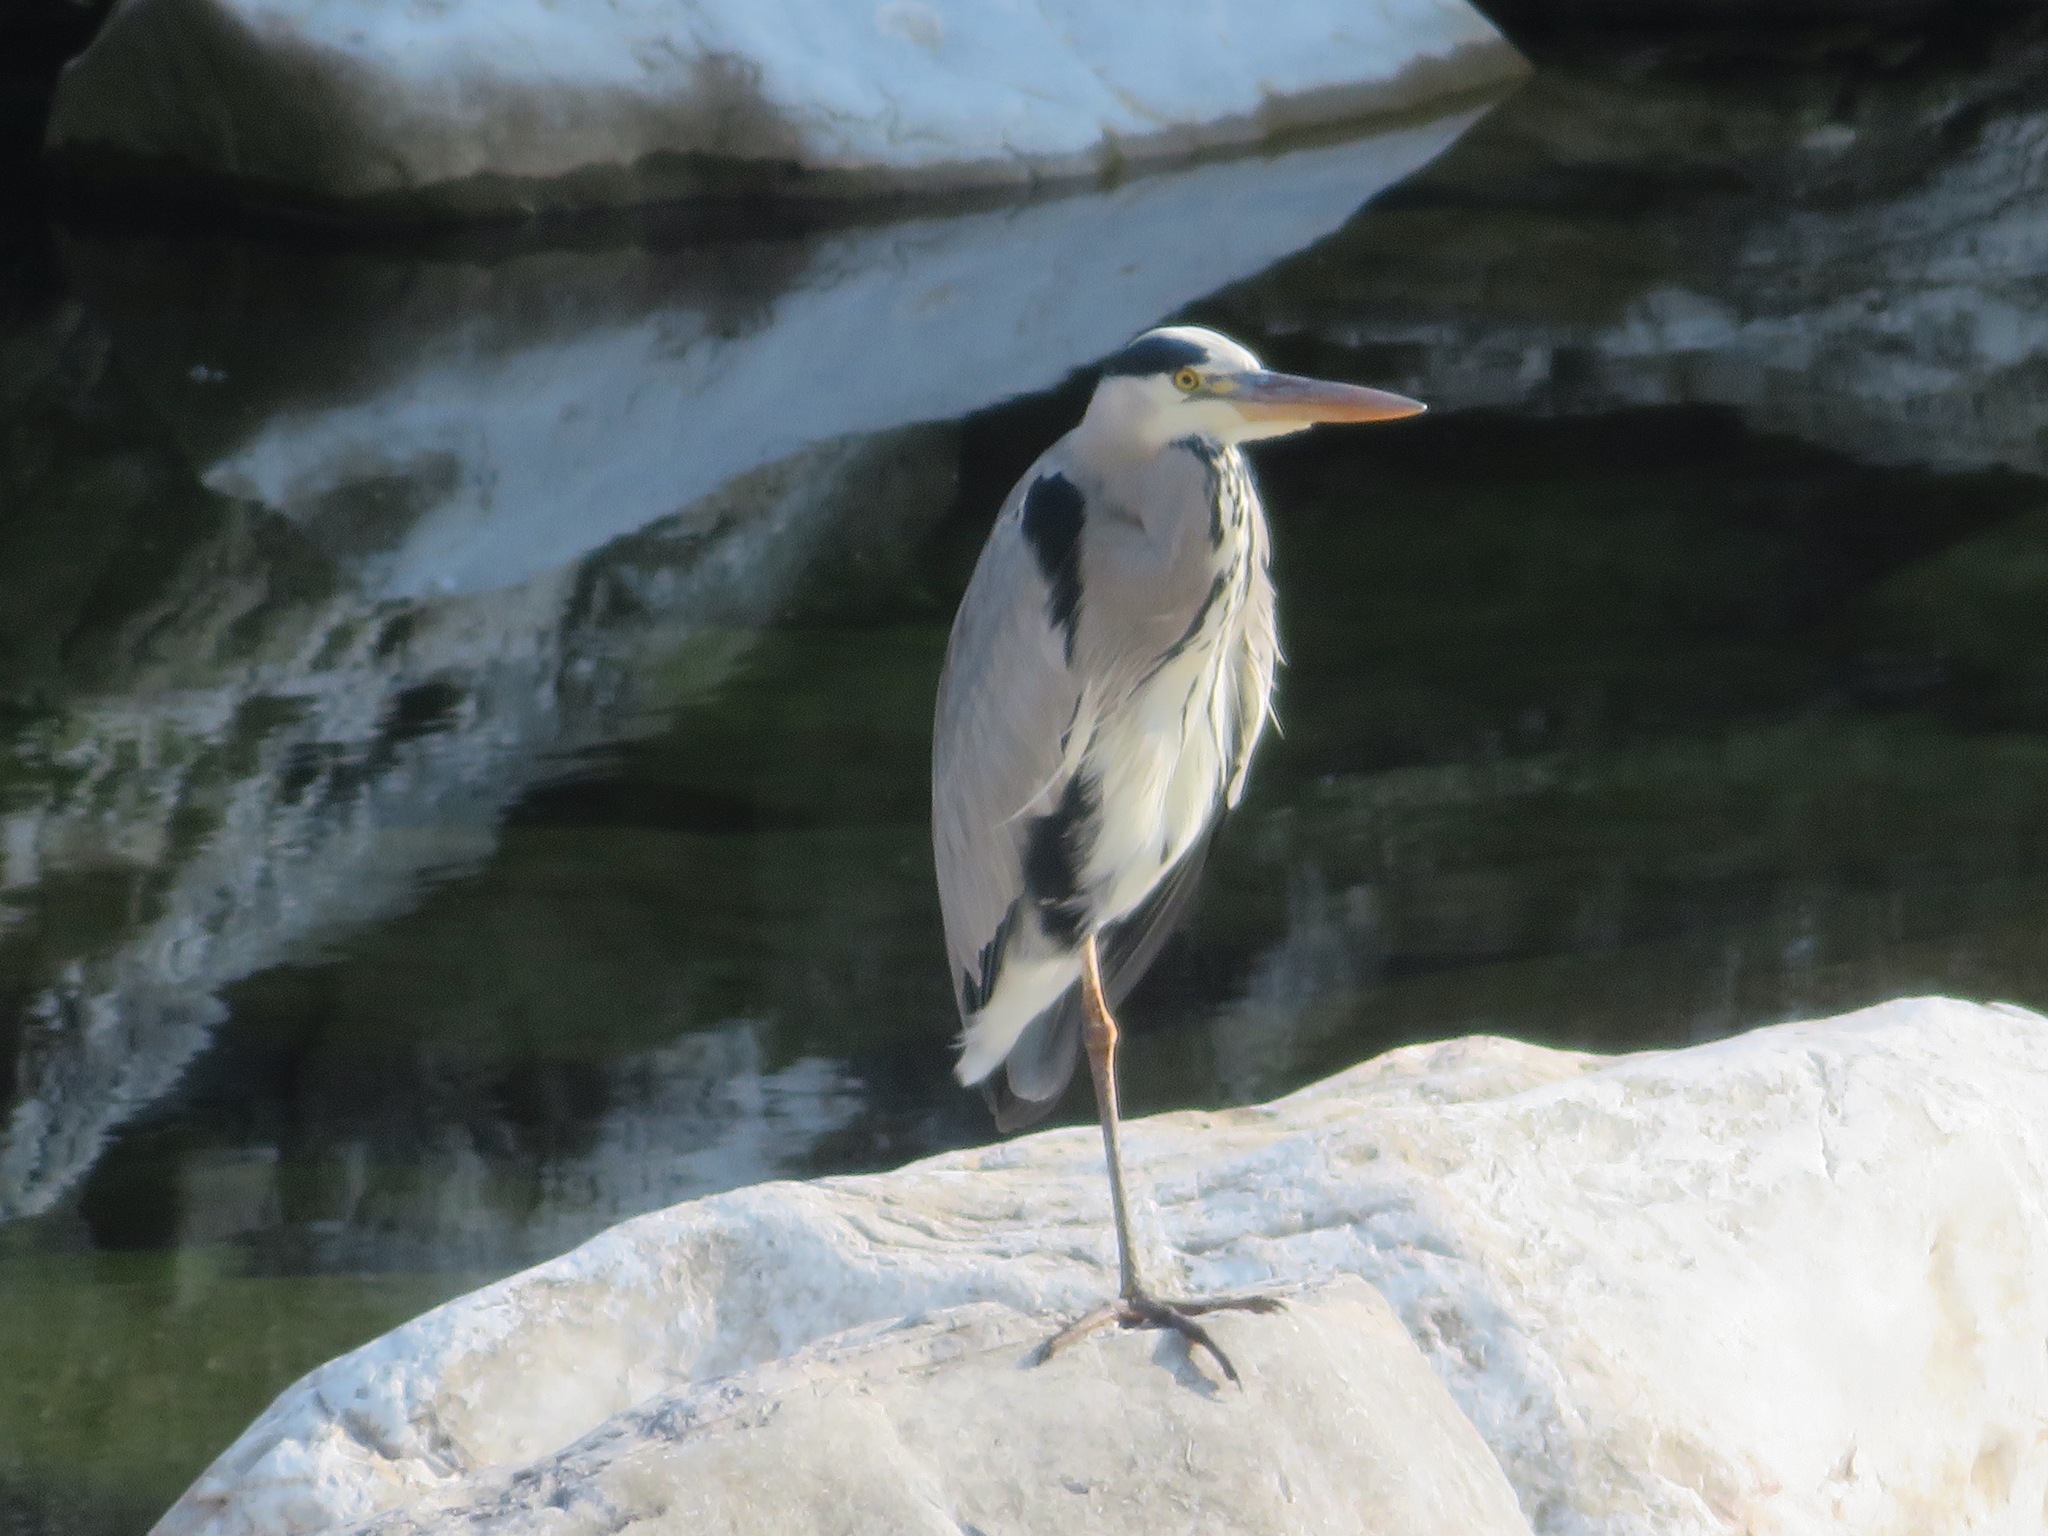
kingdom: Animalia
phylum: Chordata
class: Aves
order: Pelecaniformes
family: Ardeidae
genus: Ardea
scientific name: Ardea cinerea
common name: Grey heron
